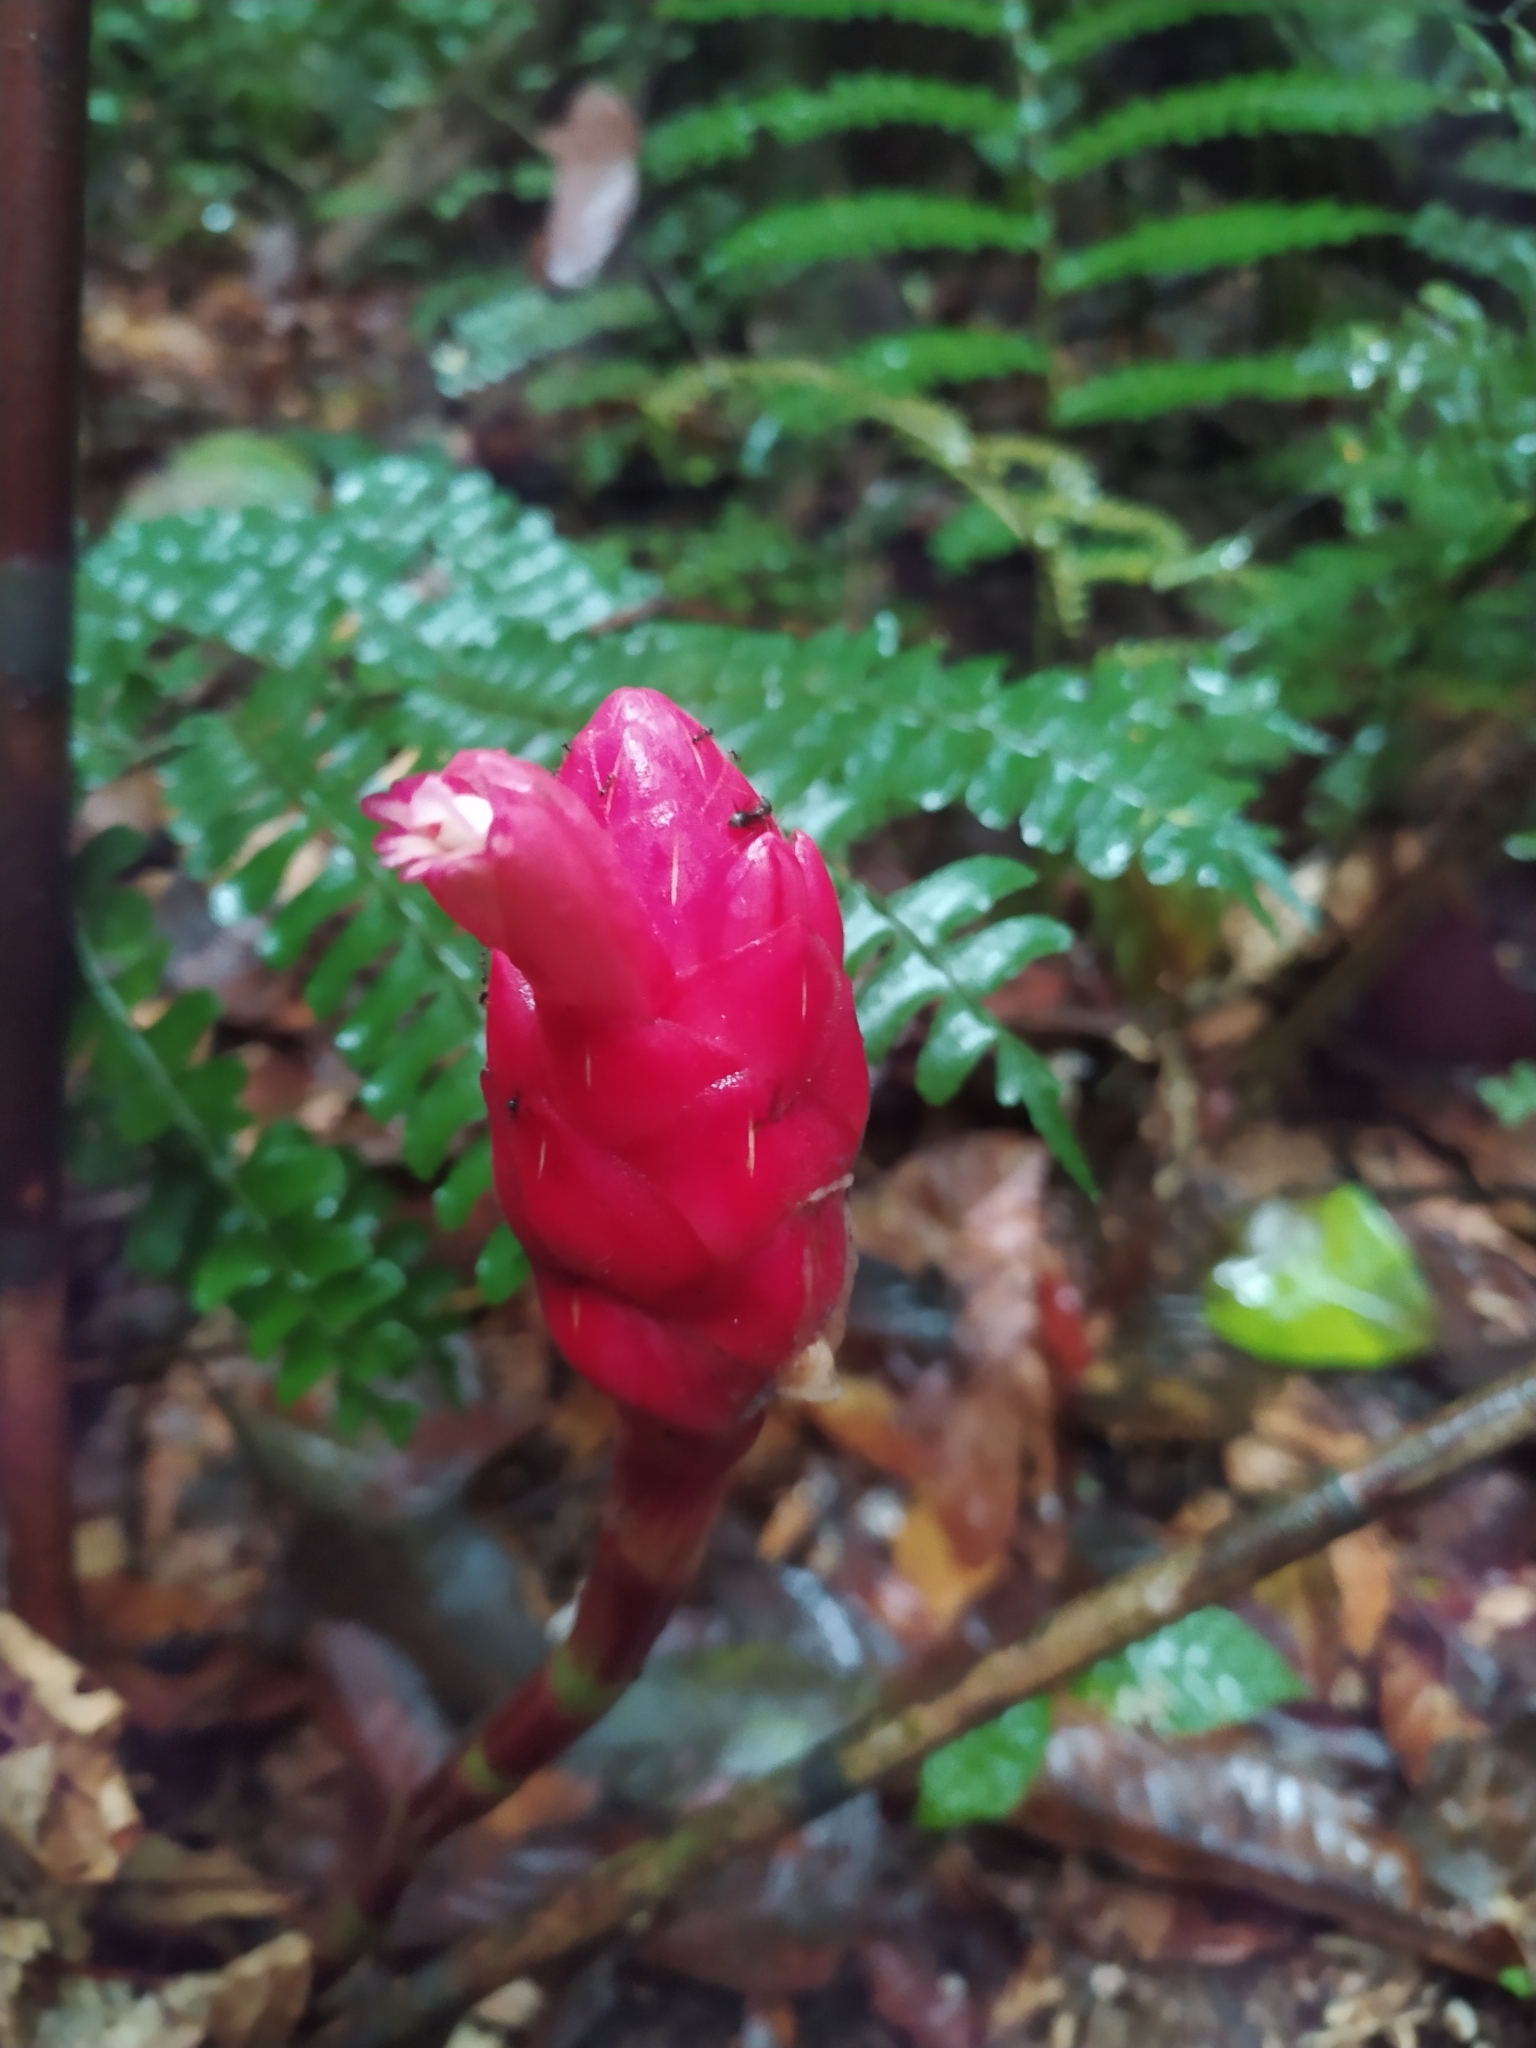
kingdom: Plantae
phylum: Tracheophyta
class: Liliopsida
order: Zingiberales
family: Costaceae
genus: Costus
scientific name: Costus erythrothyrsus
